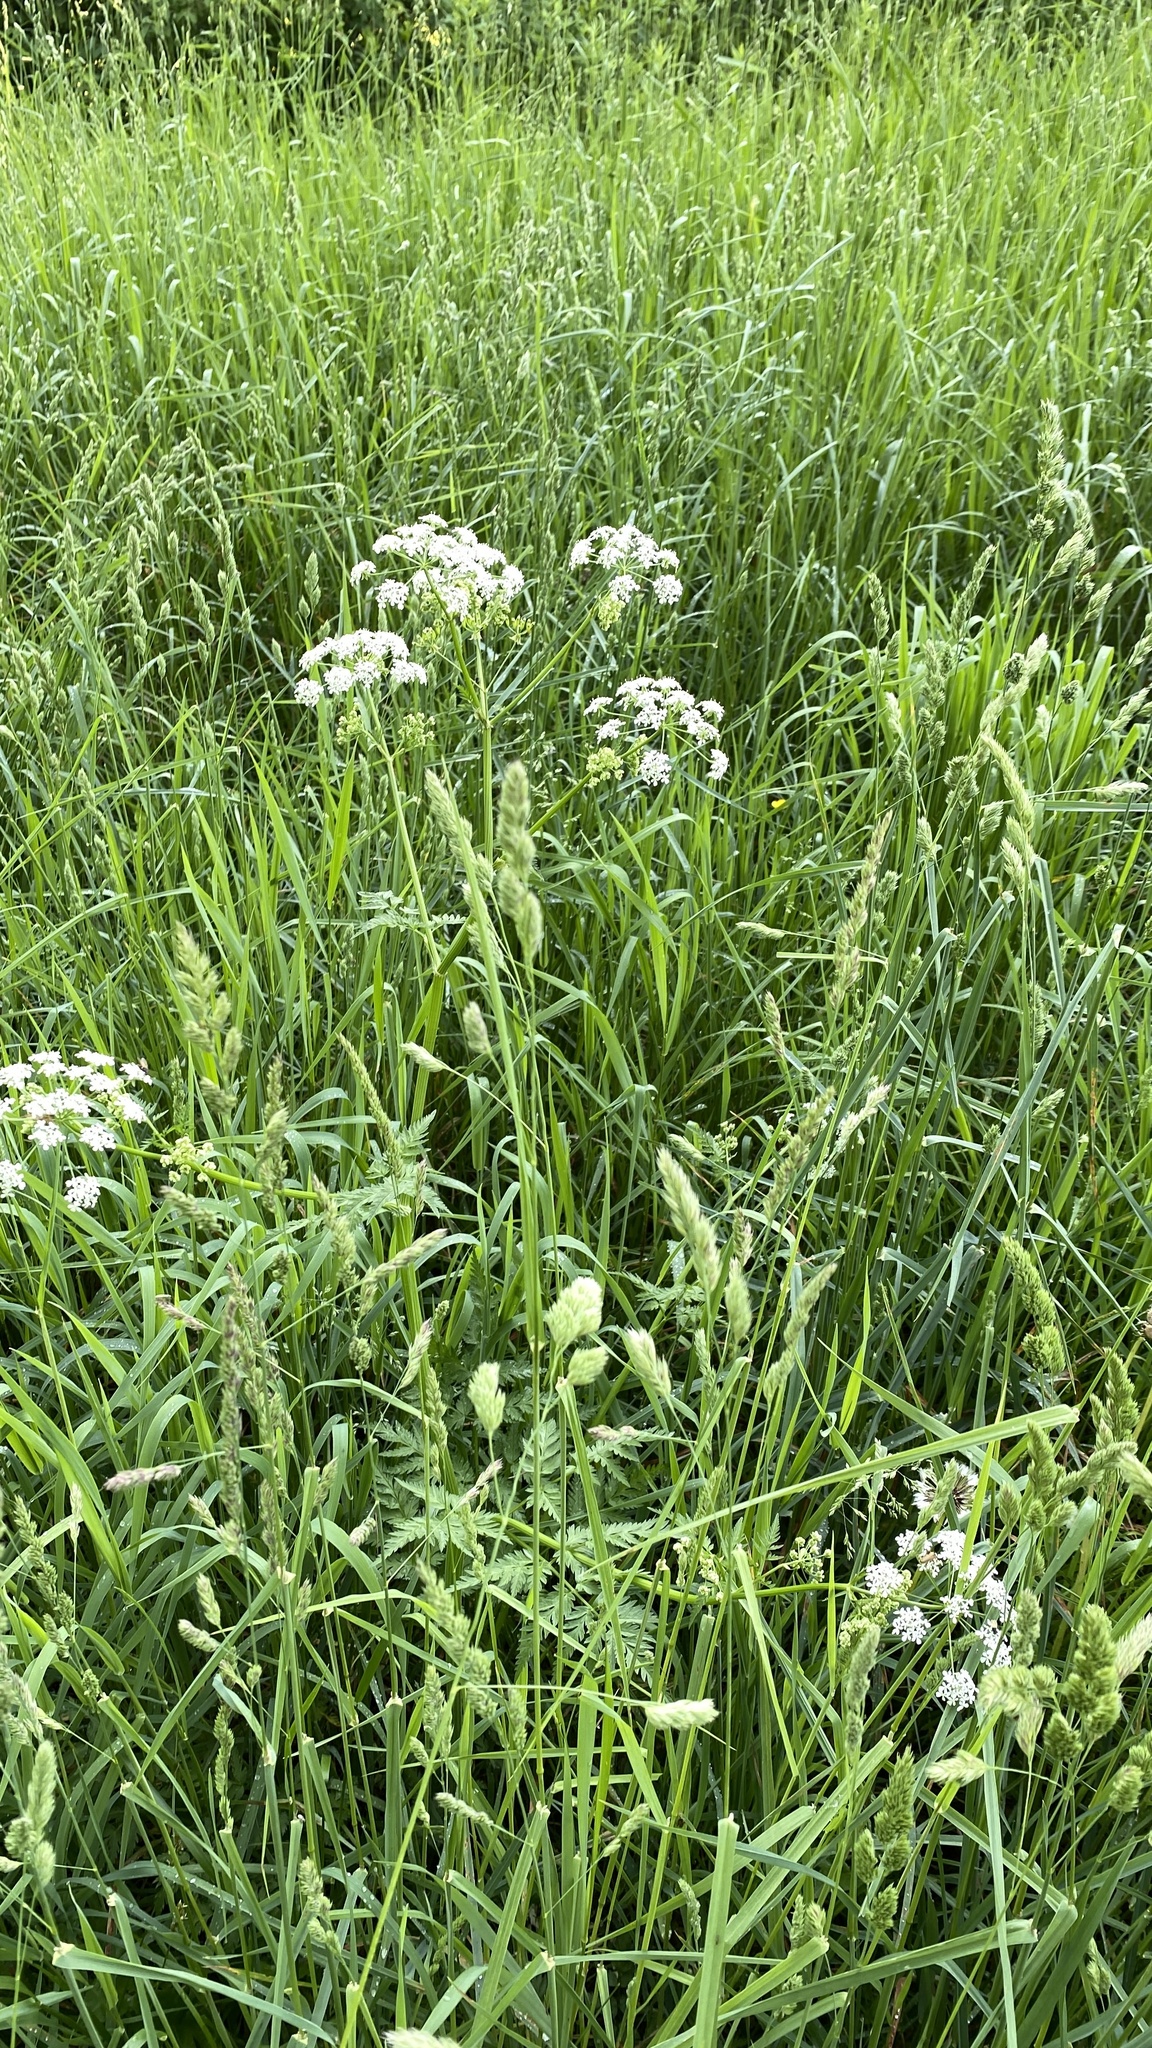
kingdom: Plantae
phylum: Tracheophyta
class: Magnoliopsida
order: Apiales
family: Apiaceae
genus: Anthriscus
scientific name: Anthriscus sylvestris
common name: Cow parsley
